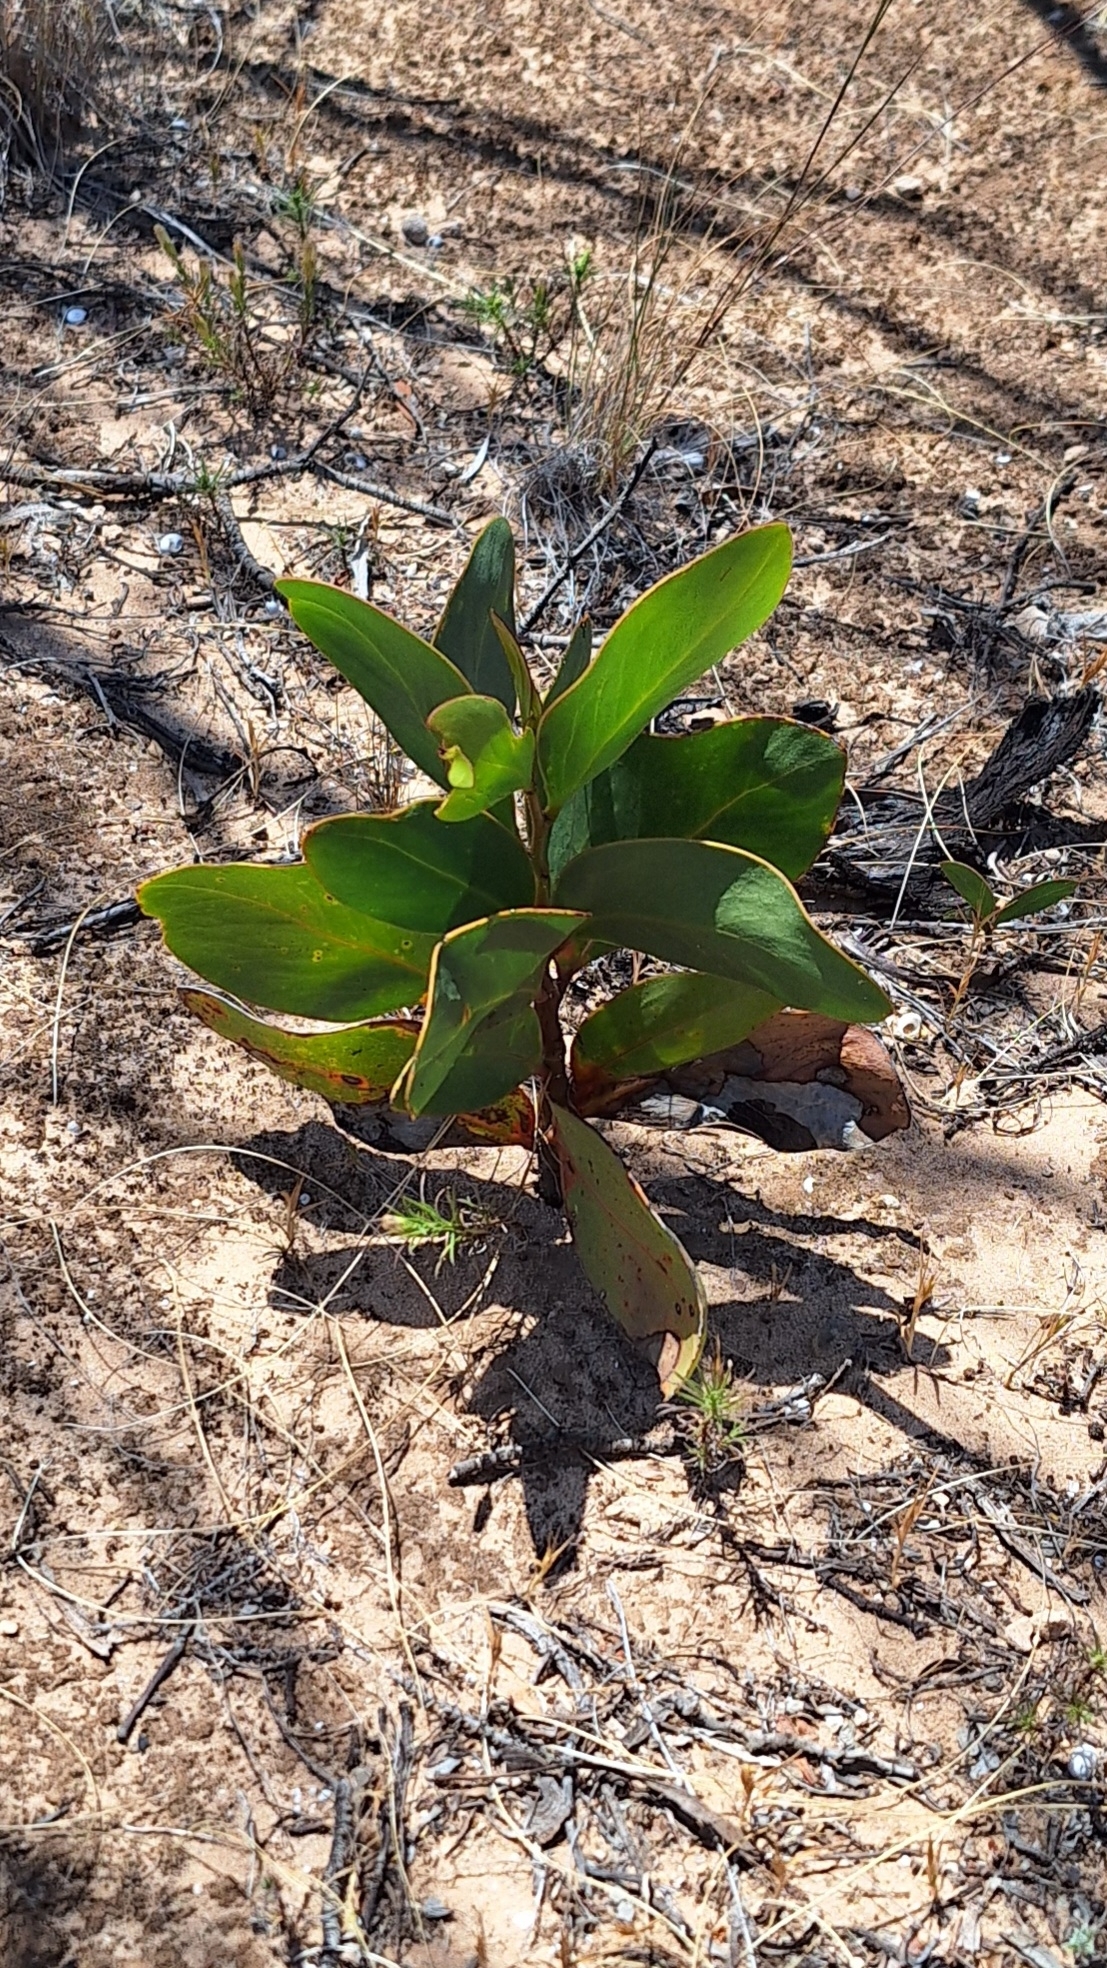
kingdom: Plantae
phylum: Tracheophyta
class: Magnoliopsida
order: Fabales
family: Fabaceae
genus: Acacia
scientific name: Acacia pycnantha
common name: Golden wattle
